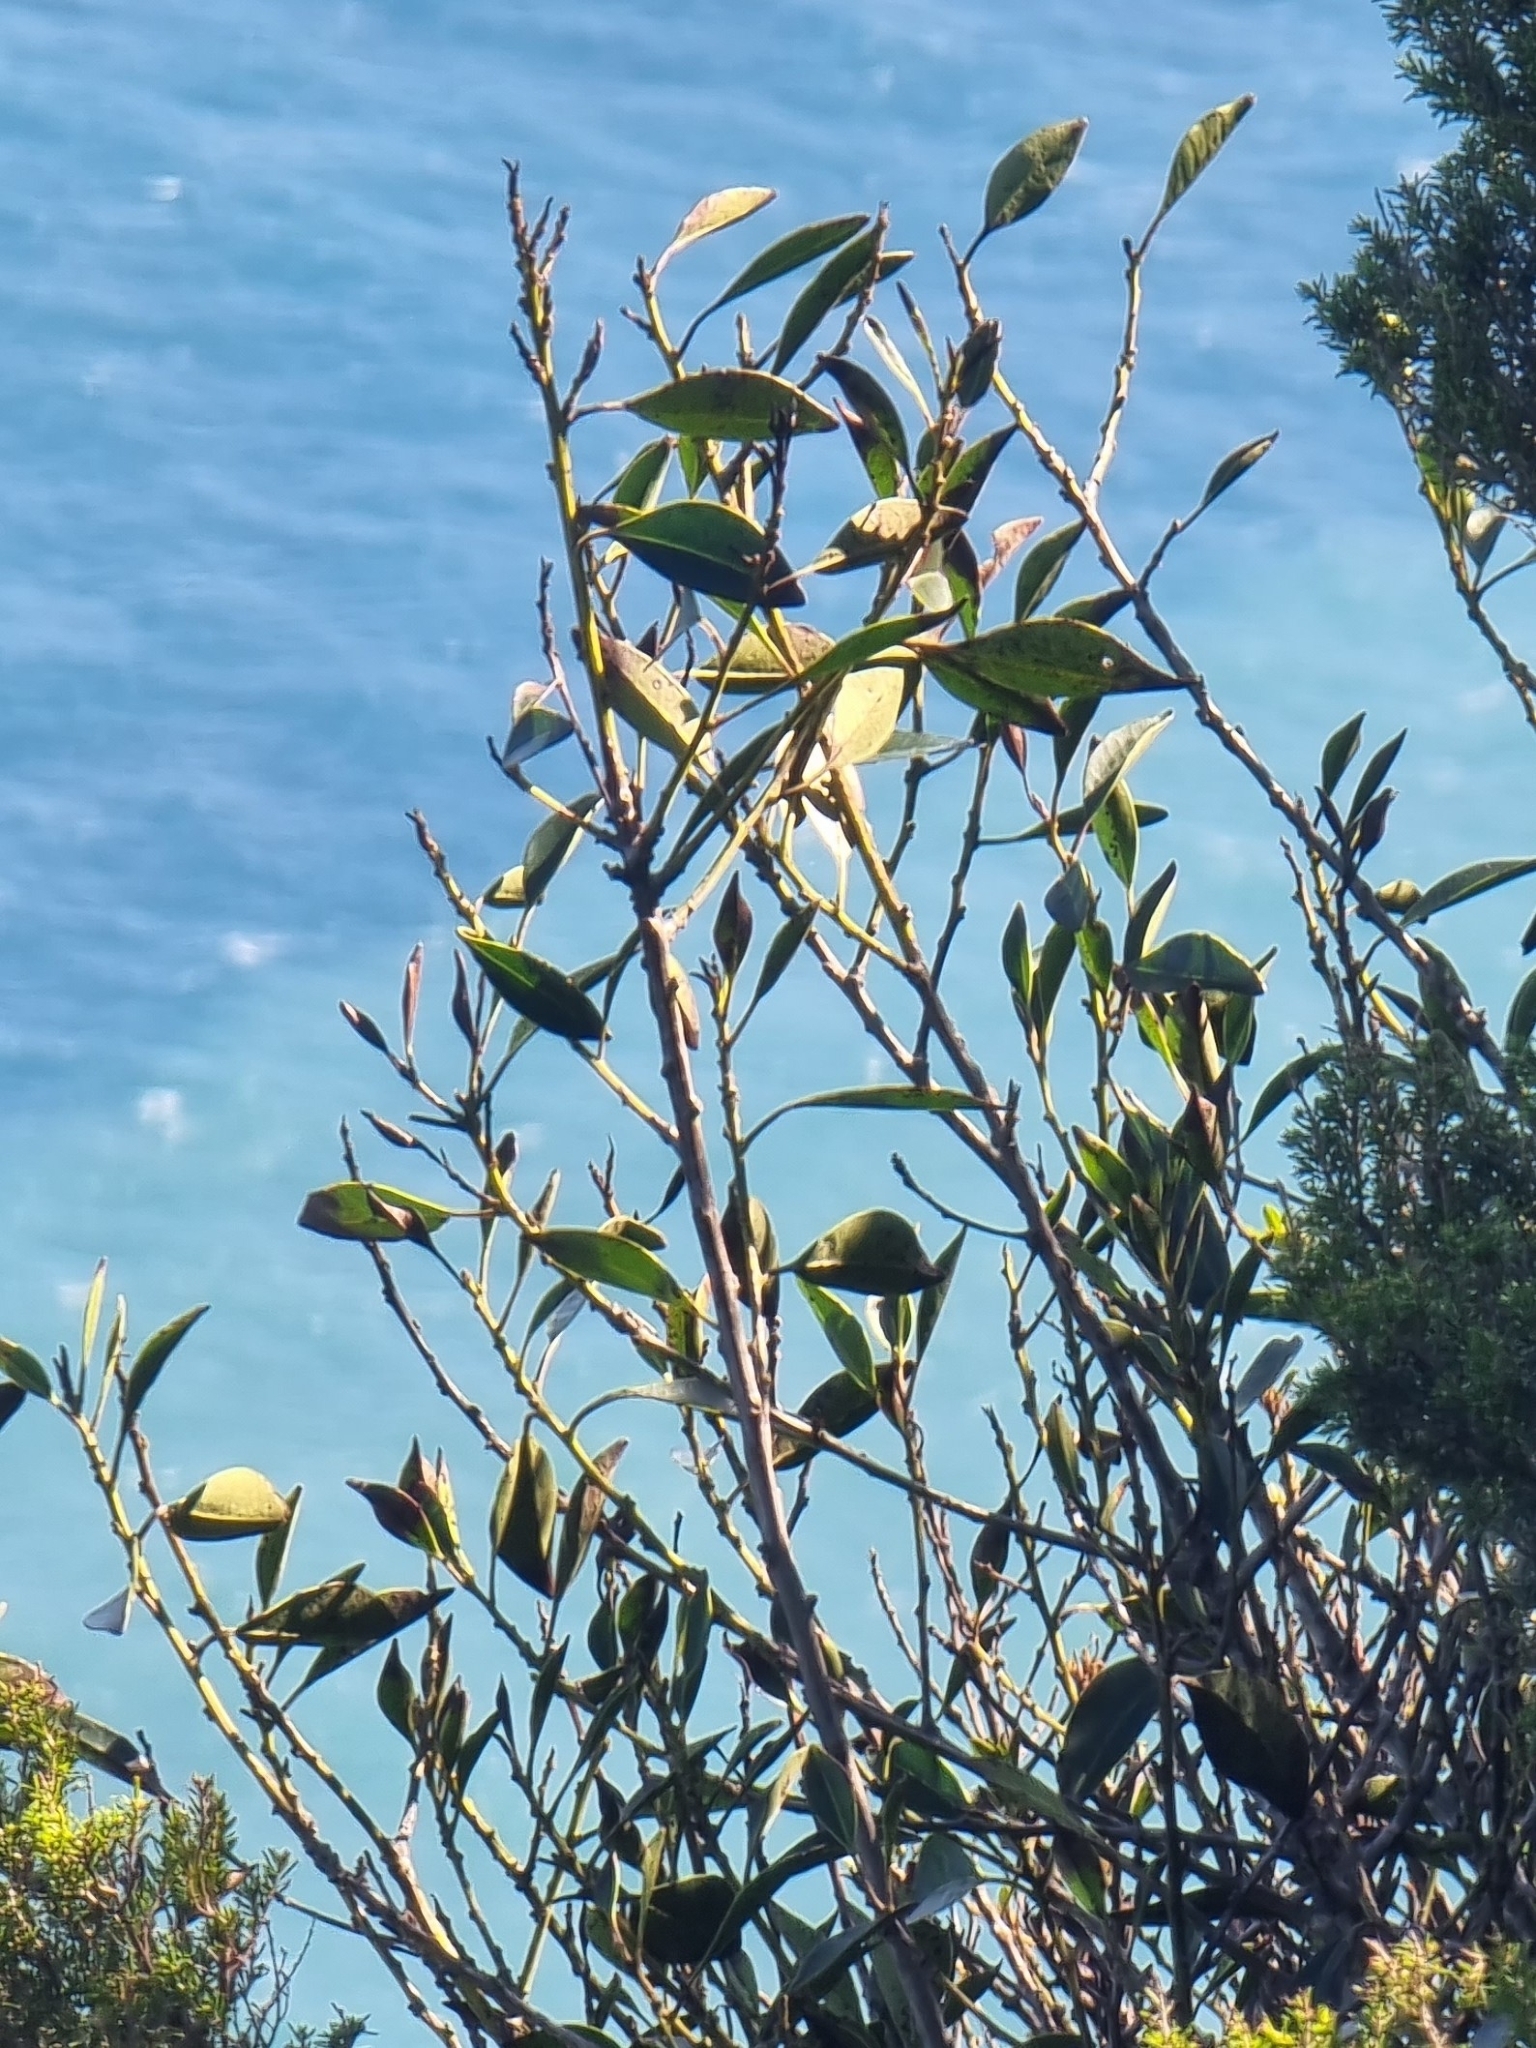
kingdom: Plantae
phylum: Tracheophyta
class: Magnoliopsida
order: Aquifoliales
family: Aquifoliaceae
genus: Ilex
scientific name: Ilex canariensis
